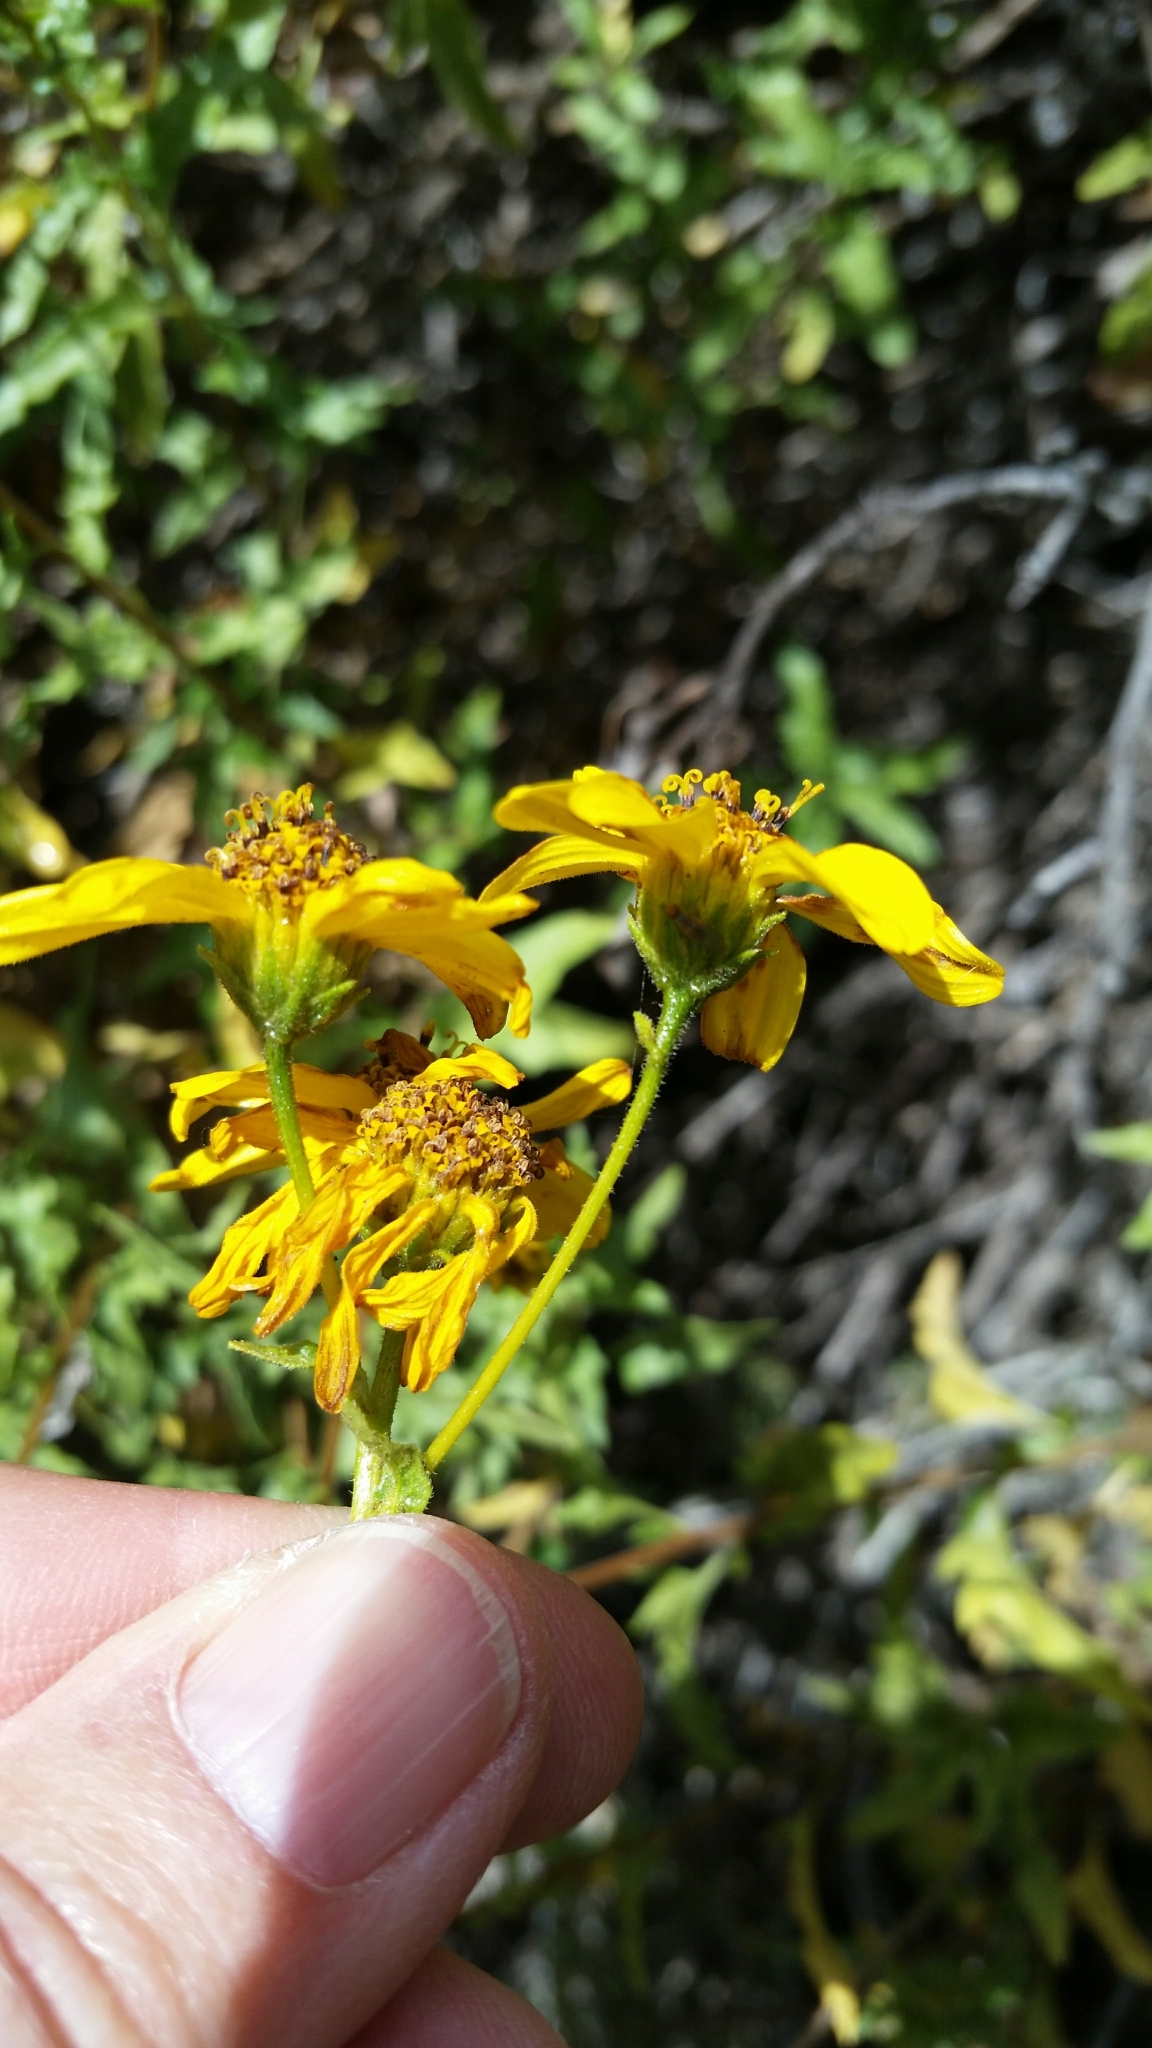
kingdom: Plantae
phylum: Tracheophyta
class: Magnoliopsida
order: Asterales
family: Asteraceae
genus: Bahiopsis
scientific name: Bahiopsis laciniata
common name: San diego county viguiera
